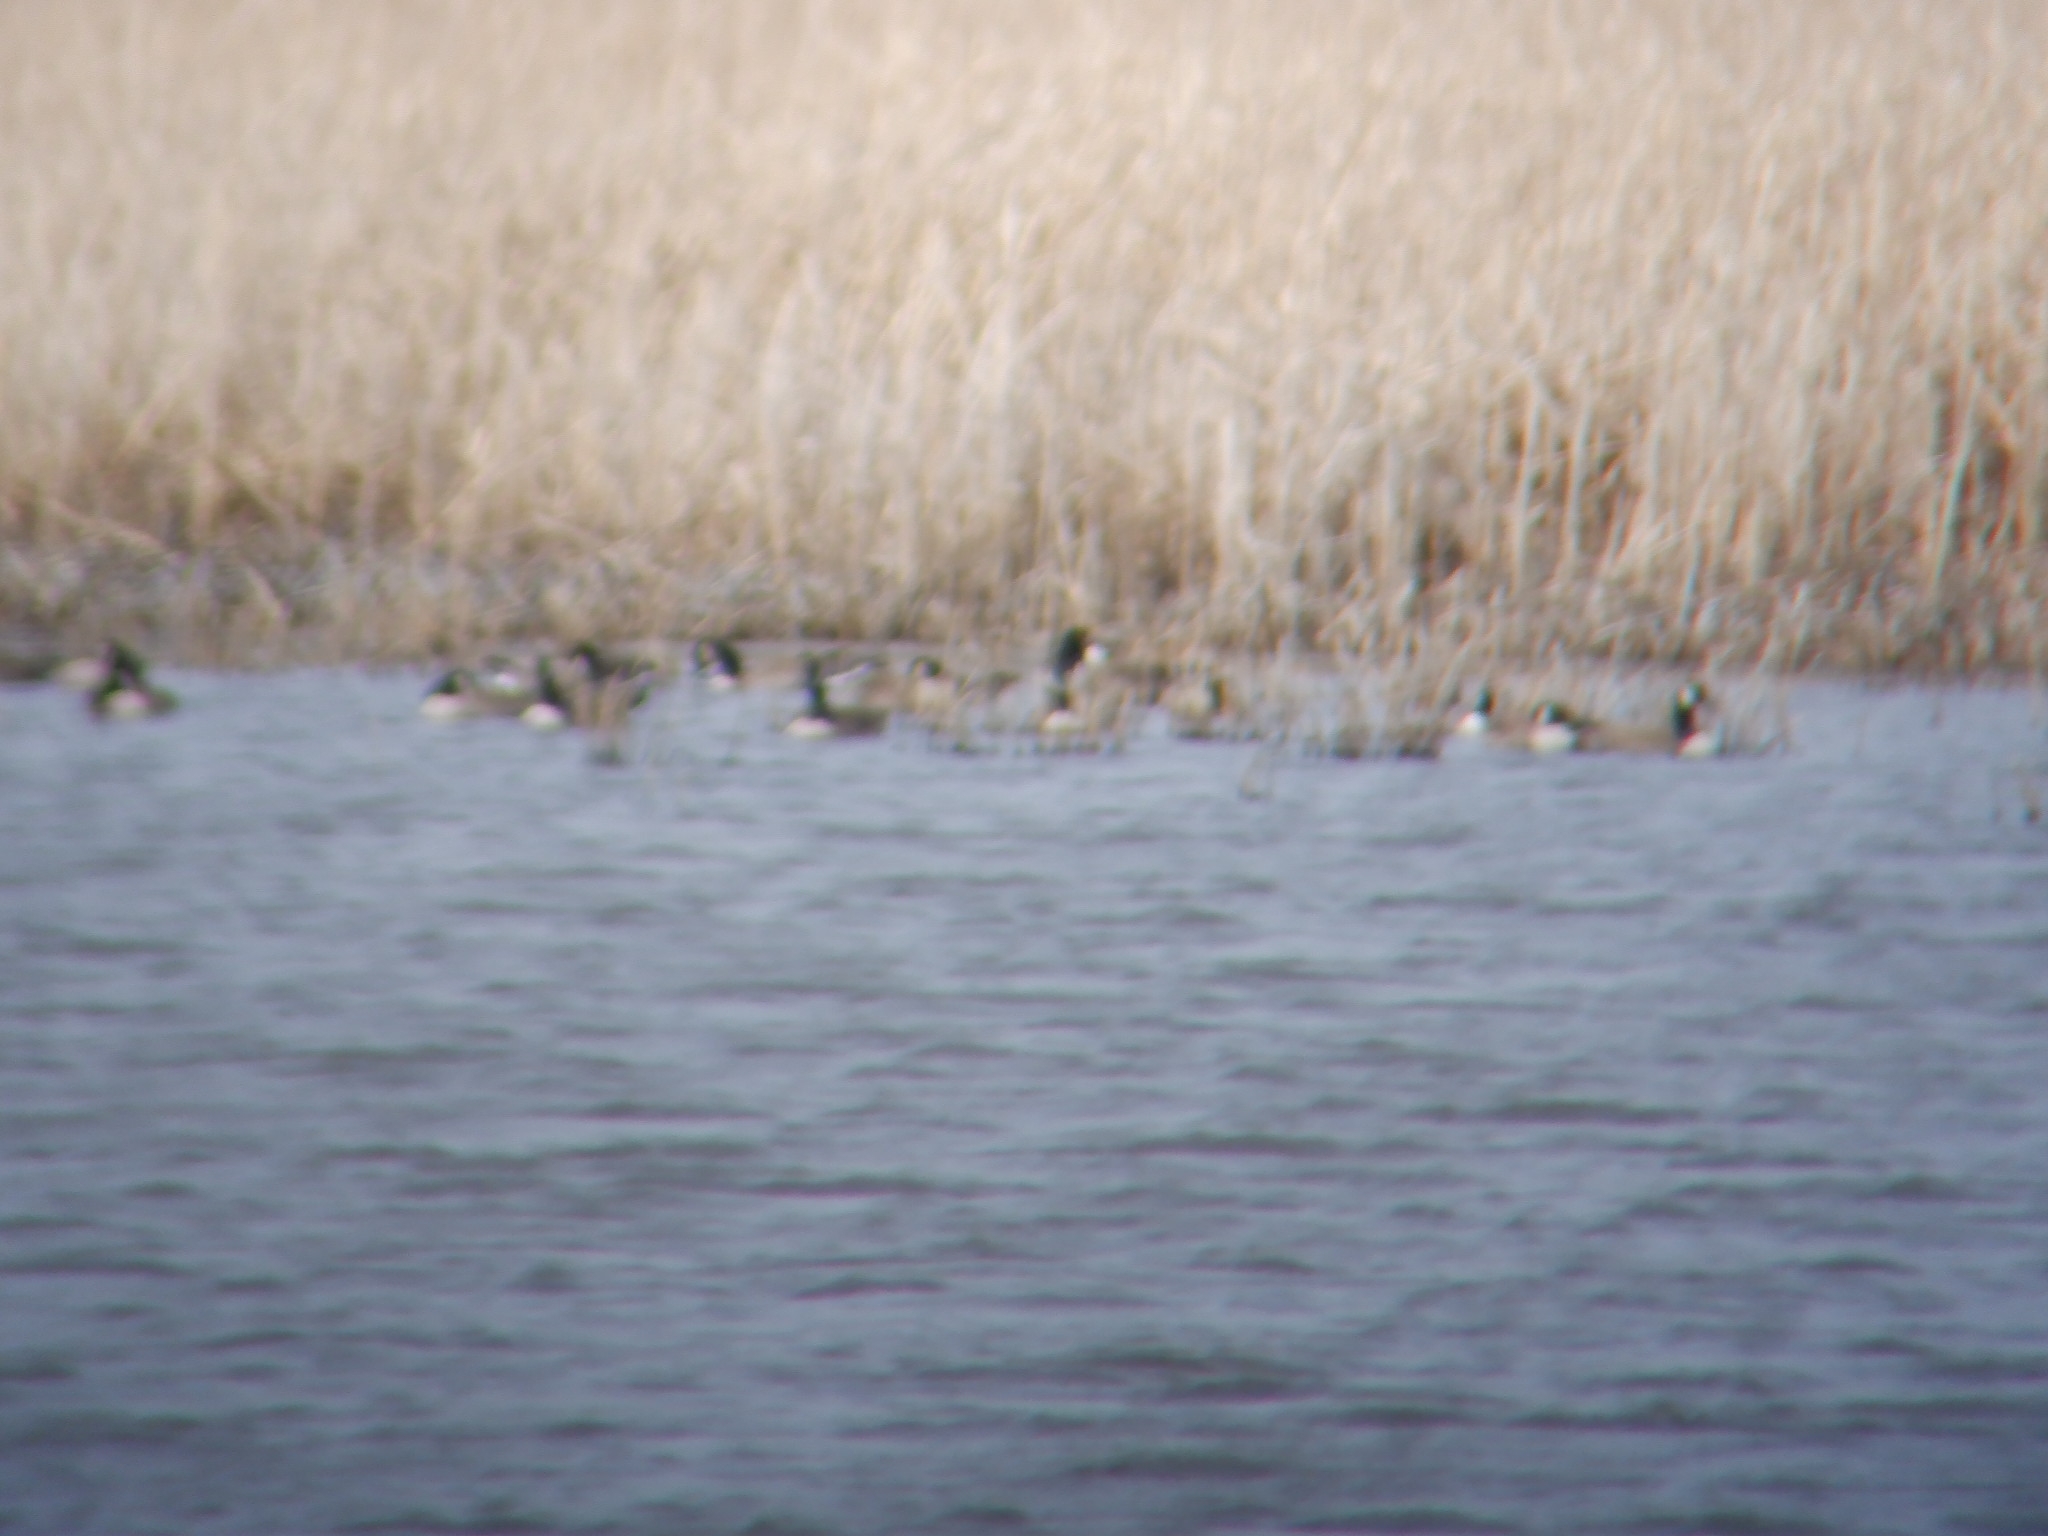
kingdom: Animalia
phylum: Chordata
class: Aves
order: Anseriformes
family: Anatidae
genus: Branta
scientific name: Branta canadensis
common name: Canada goose
